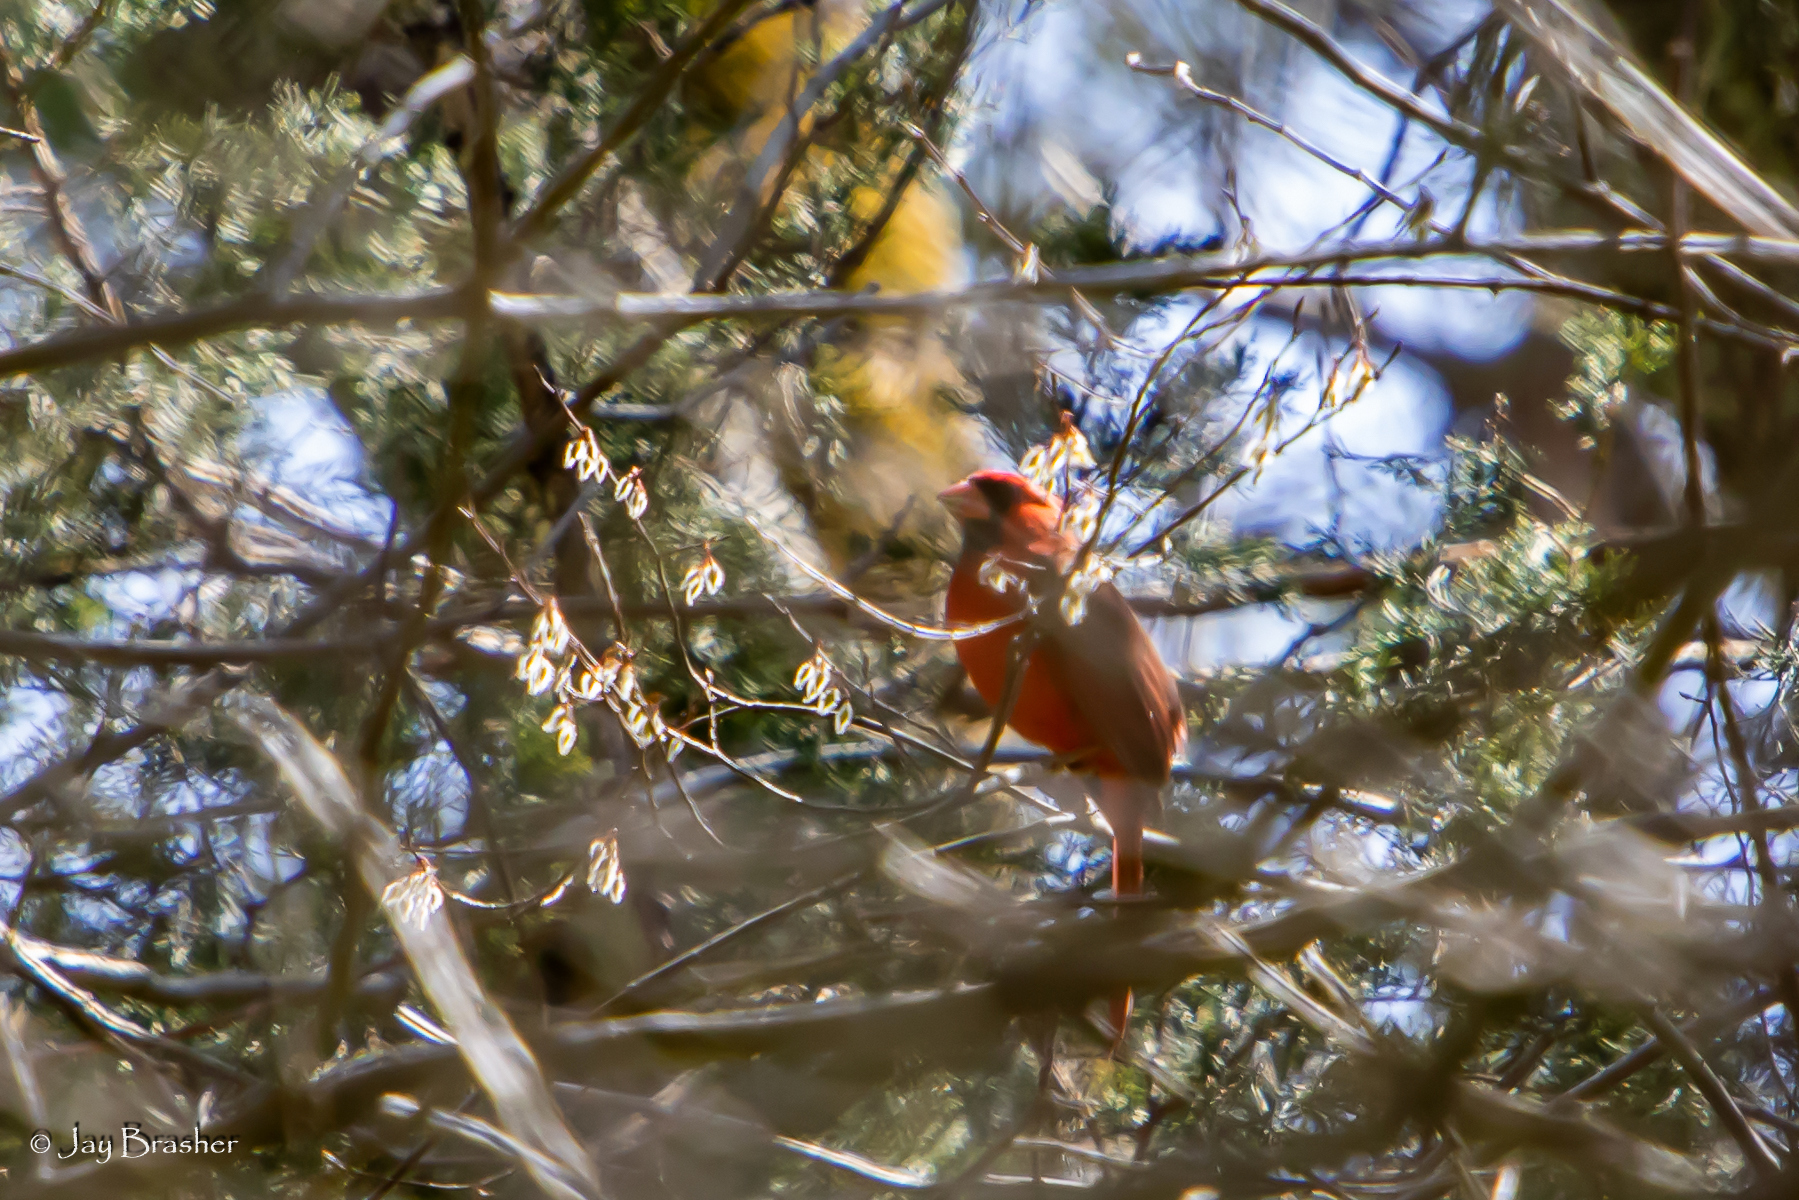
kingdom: Animalia
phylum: Chordata
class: Aves
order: Passeriformes
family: Cardinalidae
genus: Cardinalis
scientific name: Cardinalis cardinalis
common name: Northern cardinal
